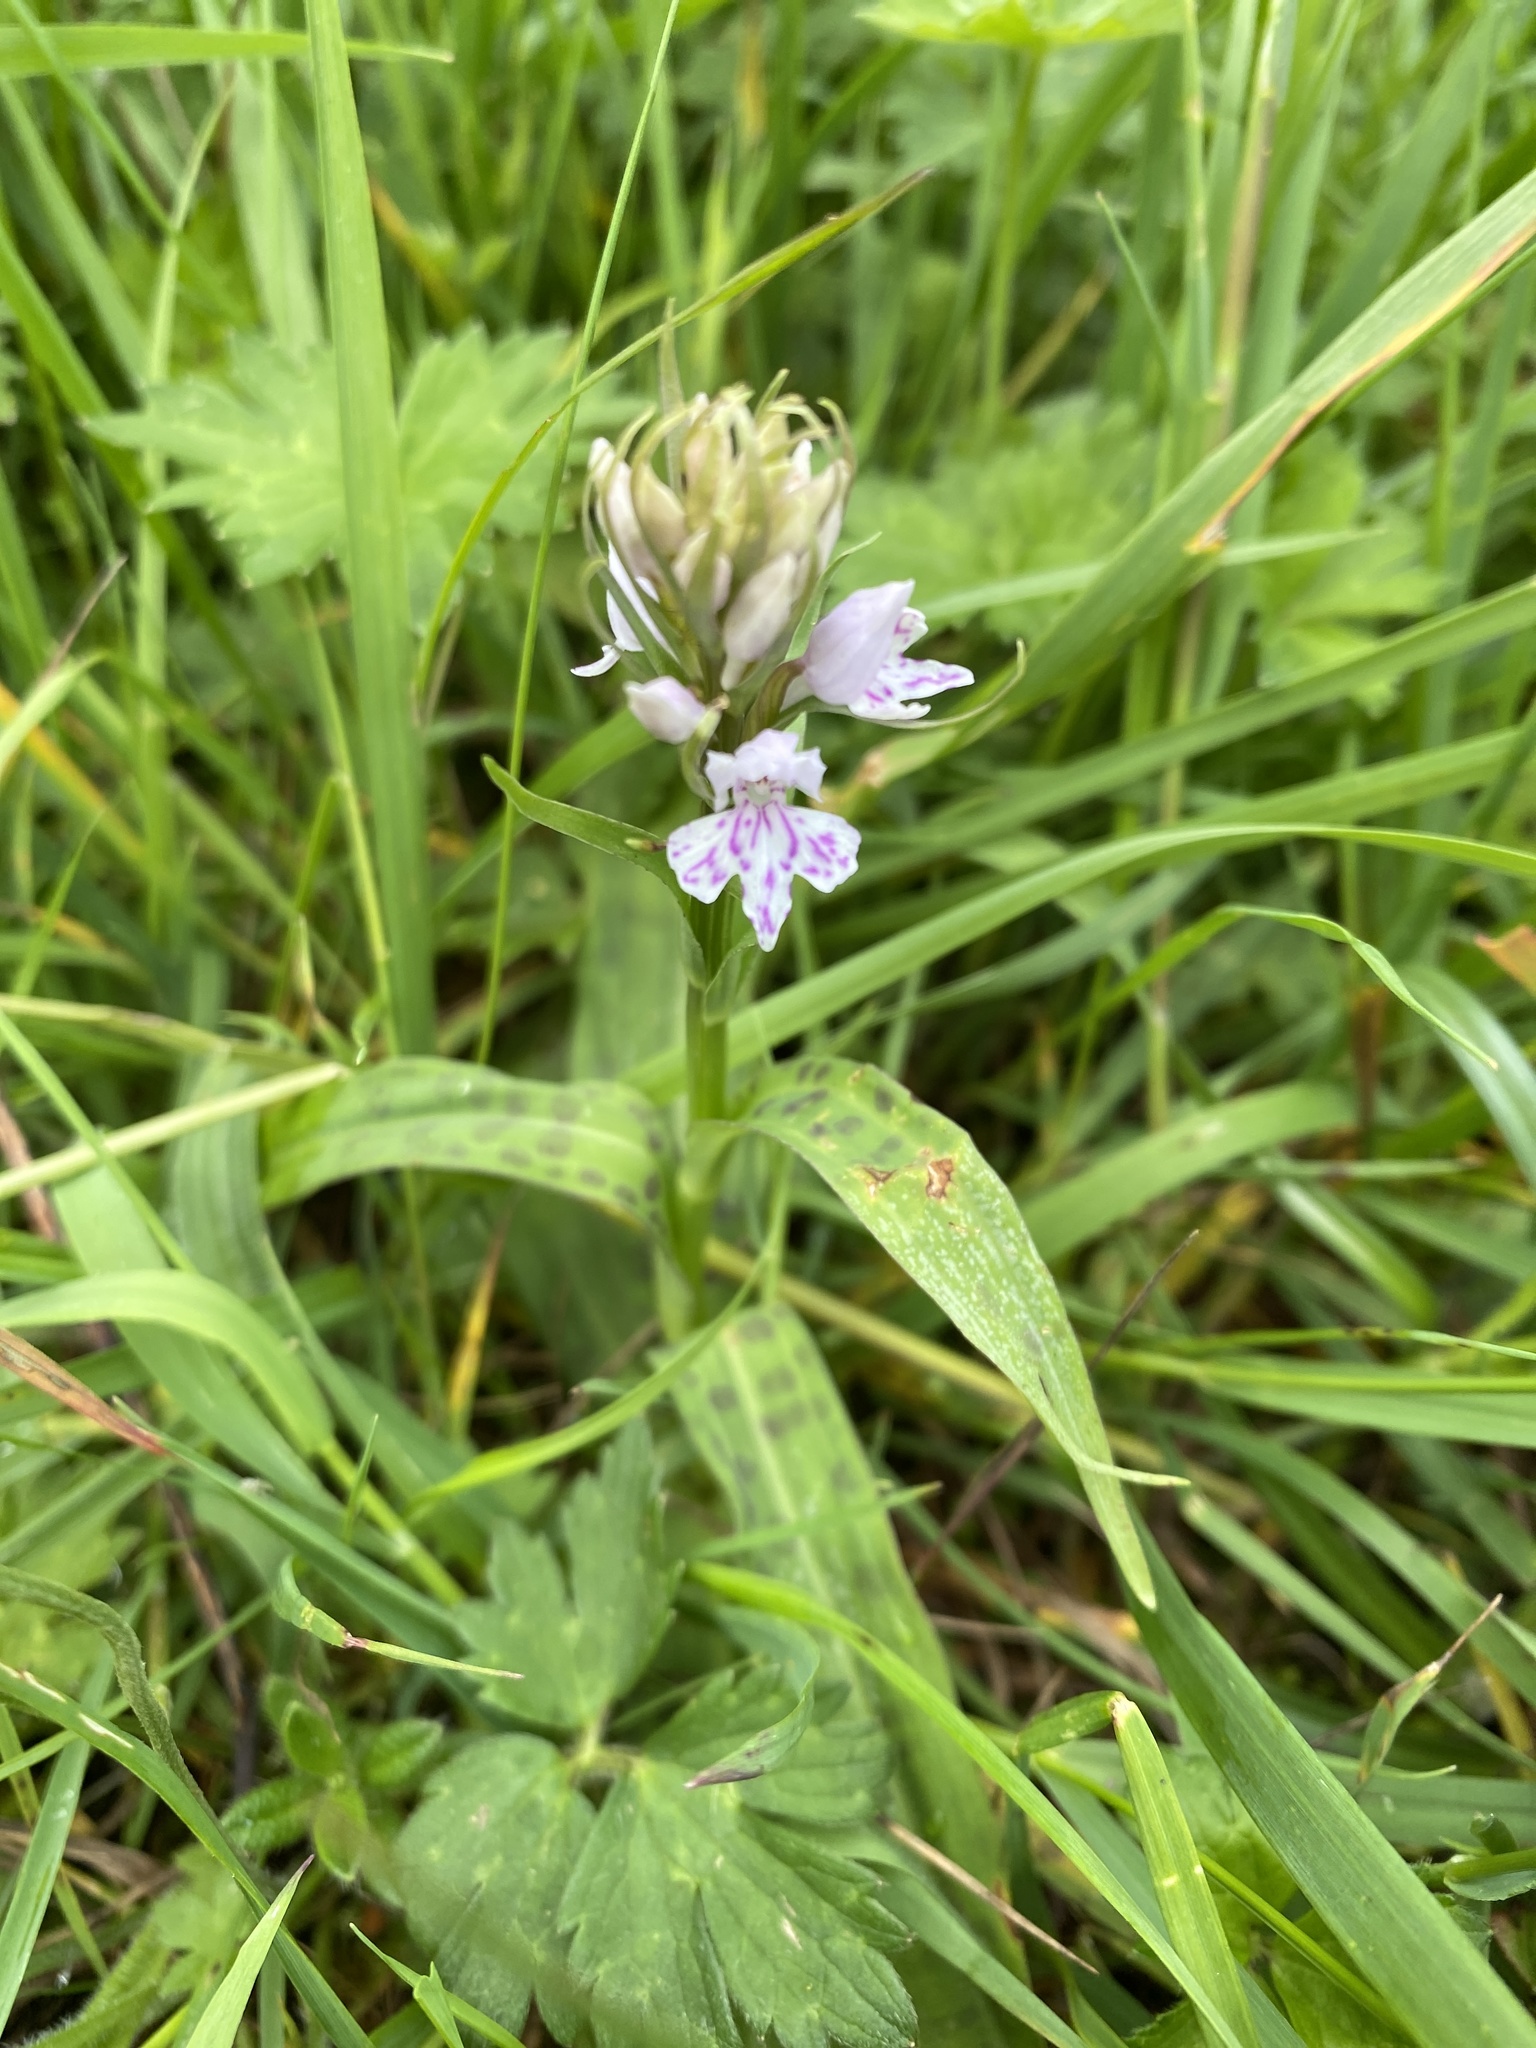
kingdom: Plantae
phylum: Tracheophyta
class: Liliopsida
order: Asparagales
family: Orchidaceae
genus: Dactylorhiza
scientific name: Dactylorhiza maculata
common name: Heath spotted-orchid
